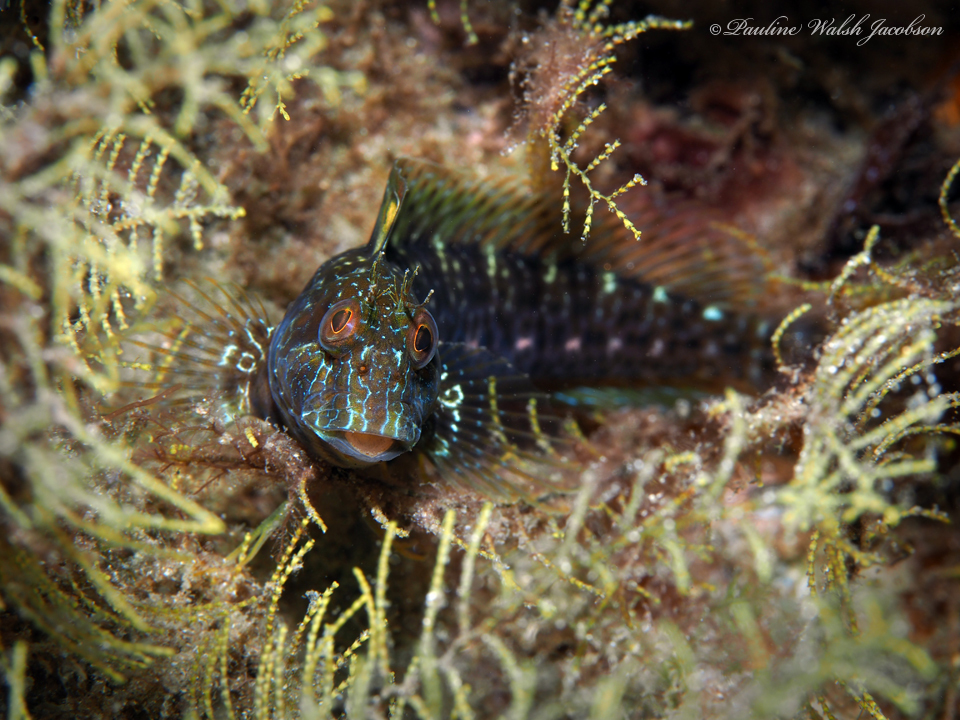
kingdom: Animalia
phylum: Chordata
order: Perciformes
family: Blenniidae
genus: Parablennius
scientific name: Parablennius marmoreus
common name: Seaweed blenny
